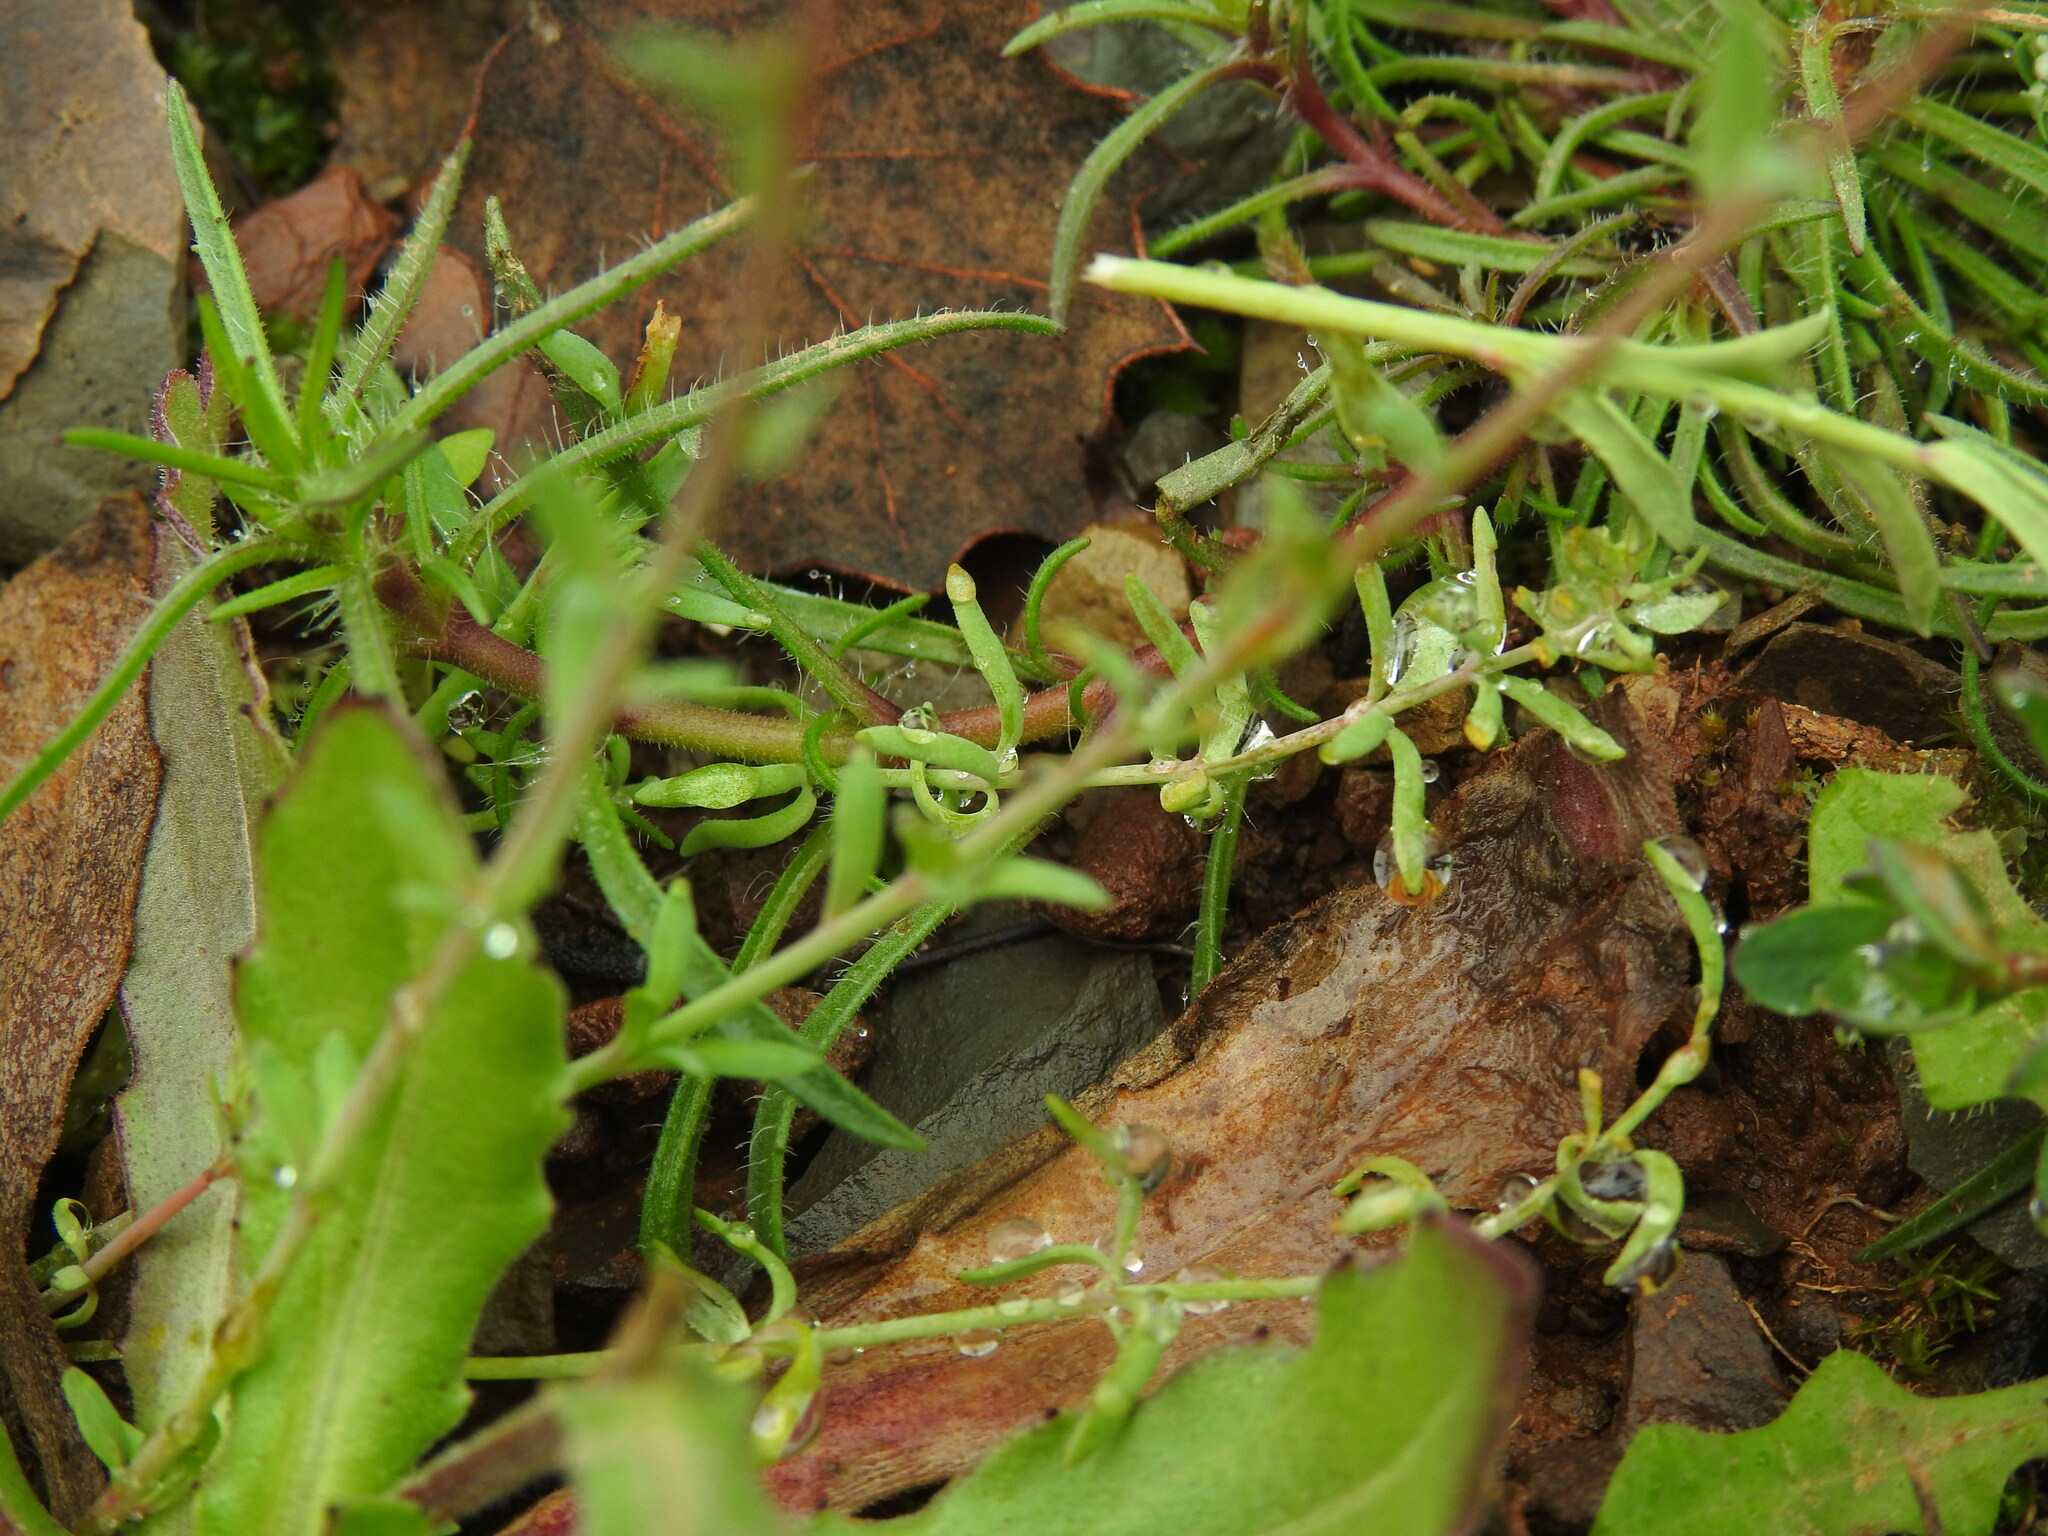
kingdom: Plantae
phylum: Tracheophyta
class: Magnoliopsida
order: Lamiales
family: Plantaginaceae
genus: Linaria
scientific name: Linaria amethystea
